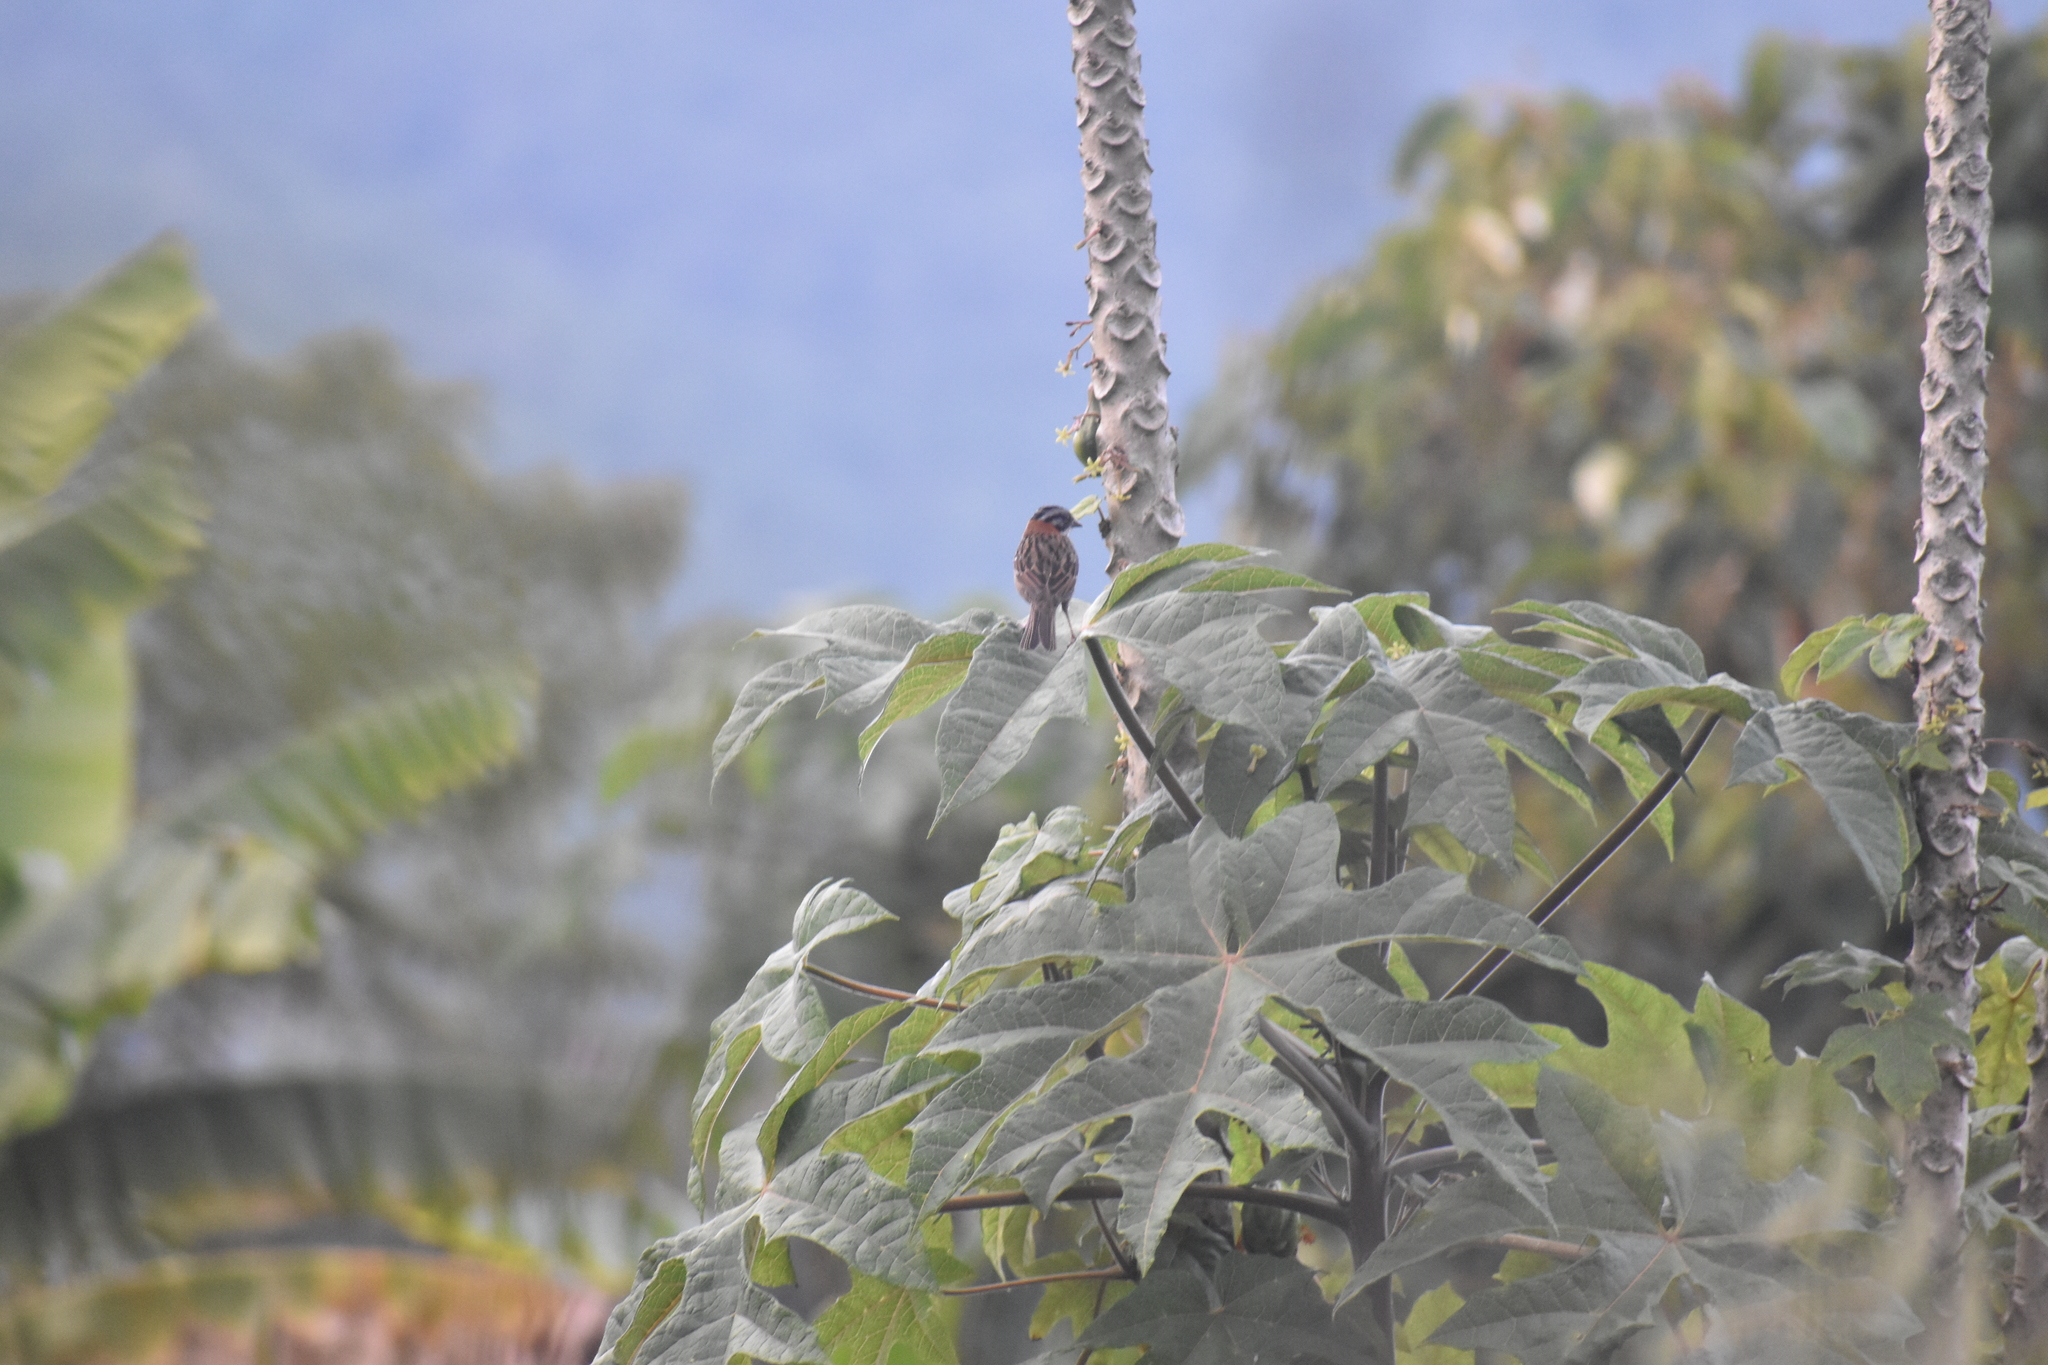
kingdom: Animalia
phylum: Chordata
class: Aves
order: Passeriformes
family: Passerellidae
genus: Zonotrichia
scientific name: Zonotrichia capensis
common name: Rufous-collared sparrow
